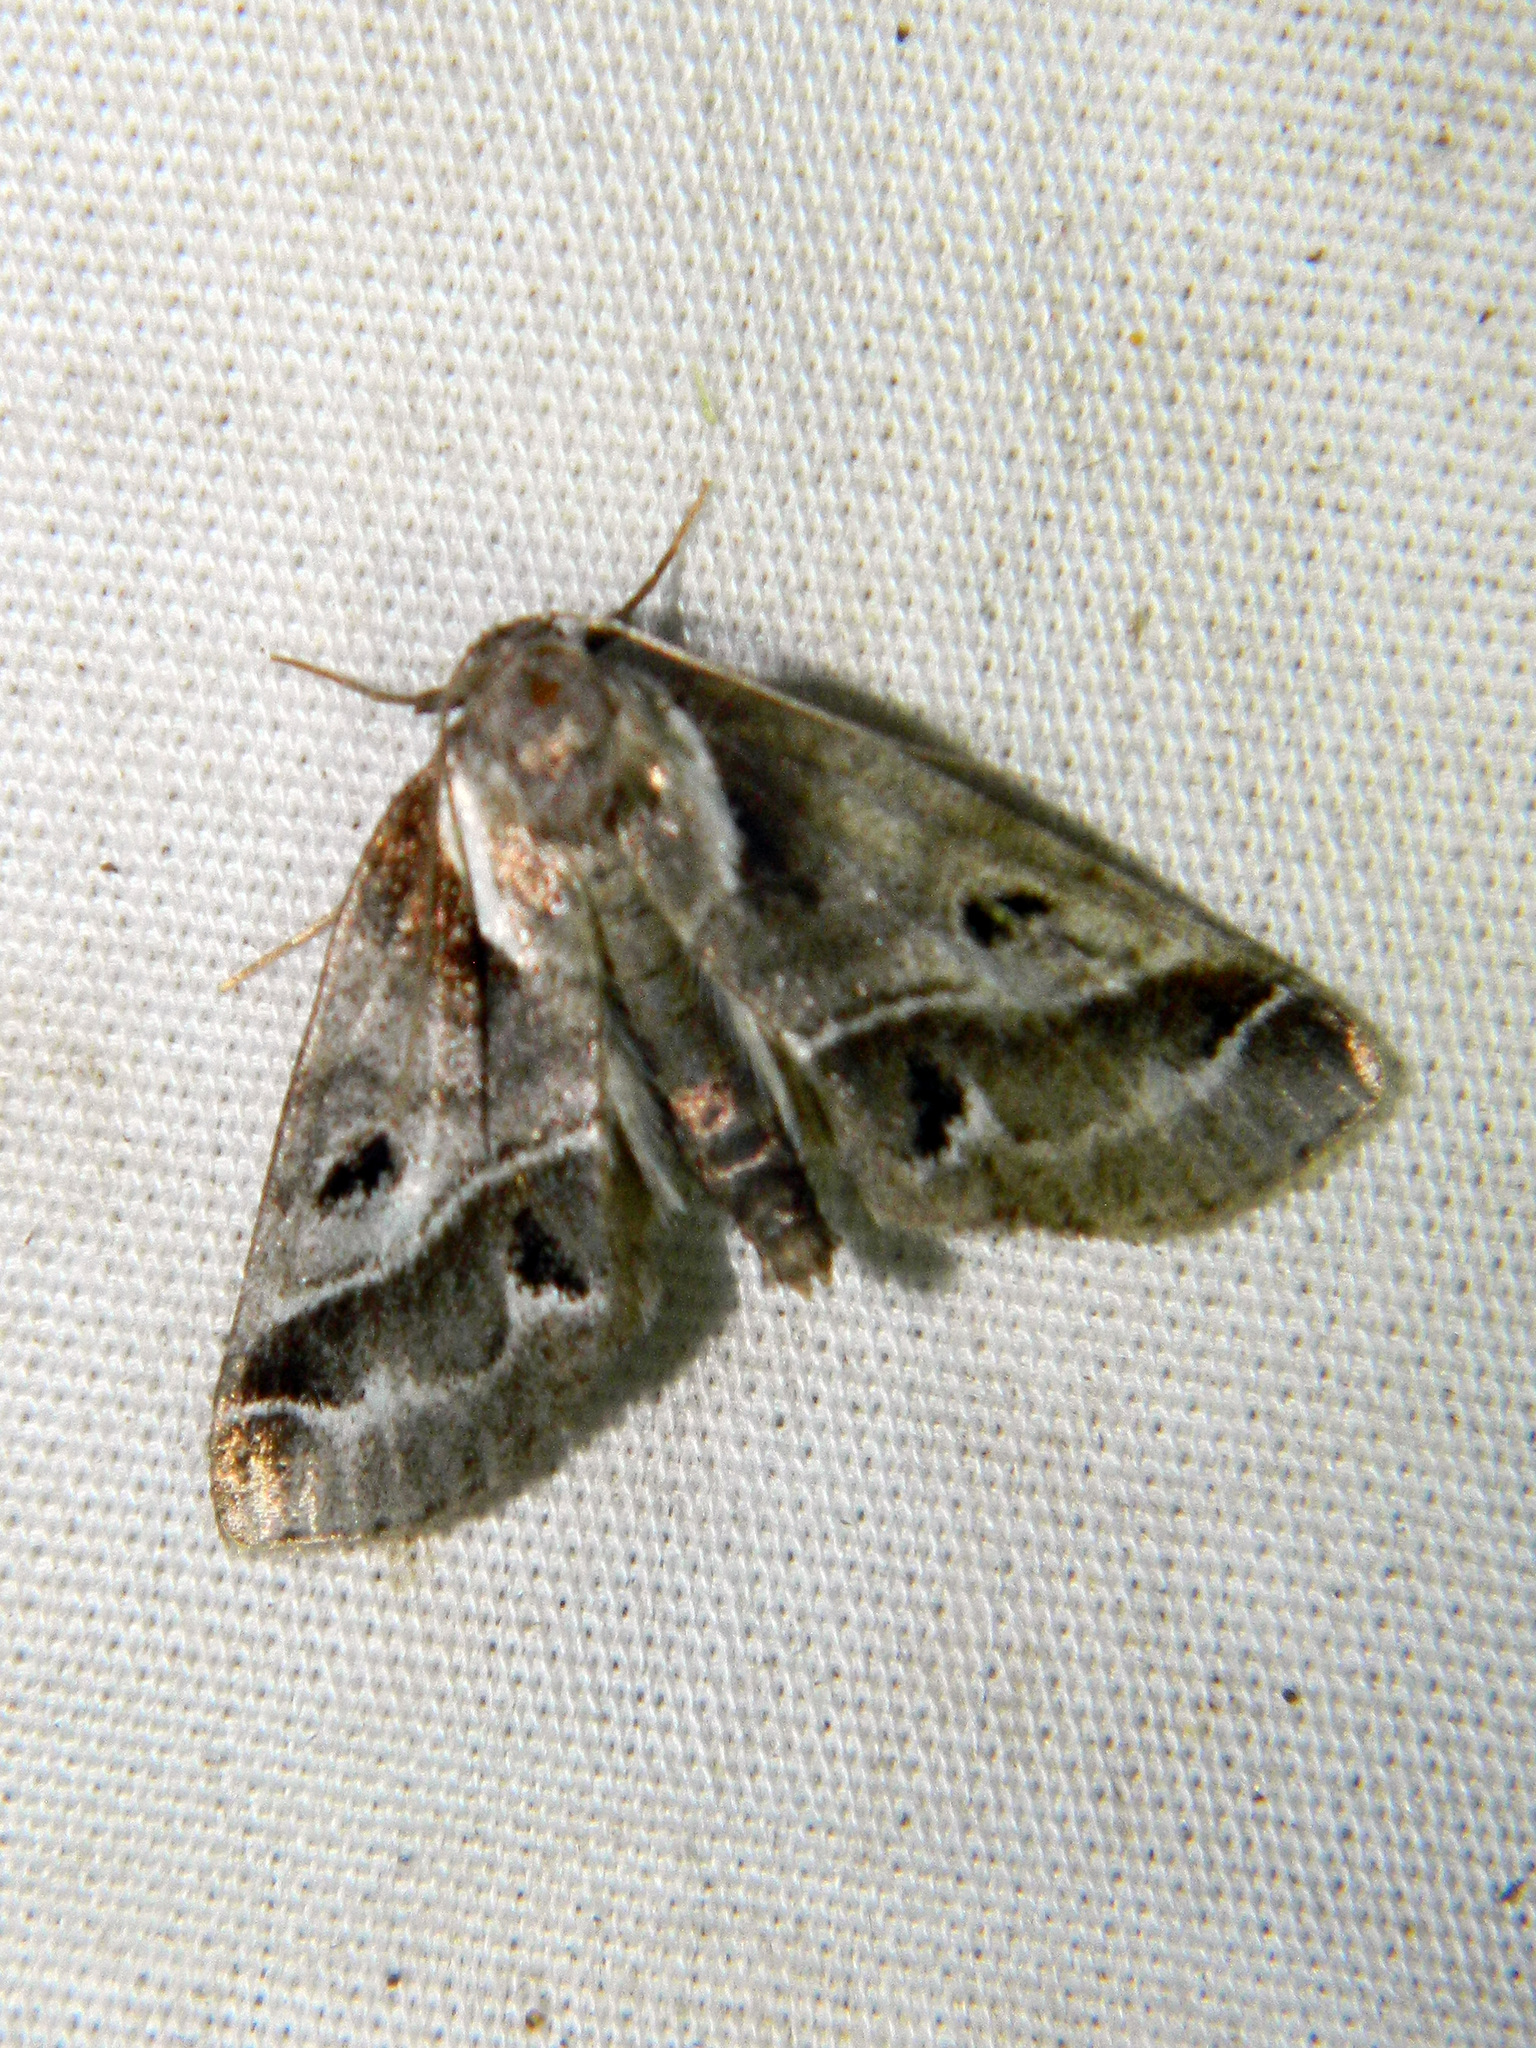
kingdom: Animalia
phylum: Arthropoda
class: Insecta
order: Lepidoptera
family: Nolidae
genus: Baileya
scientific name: Baileya doubledayi
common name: Doubleday's baileya moth
